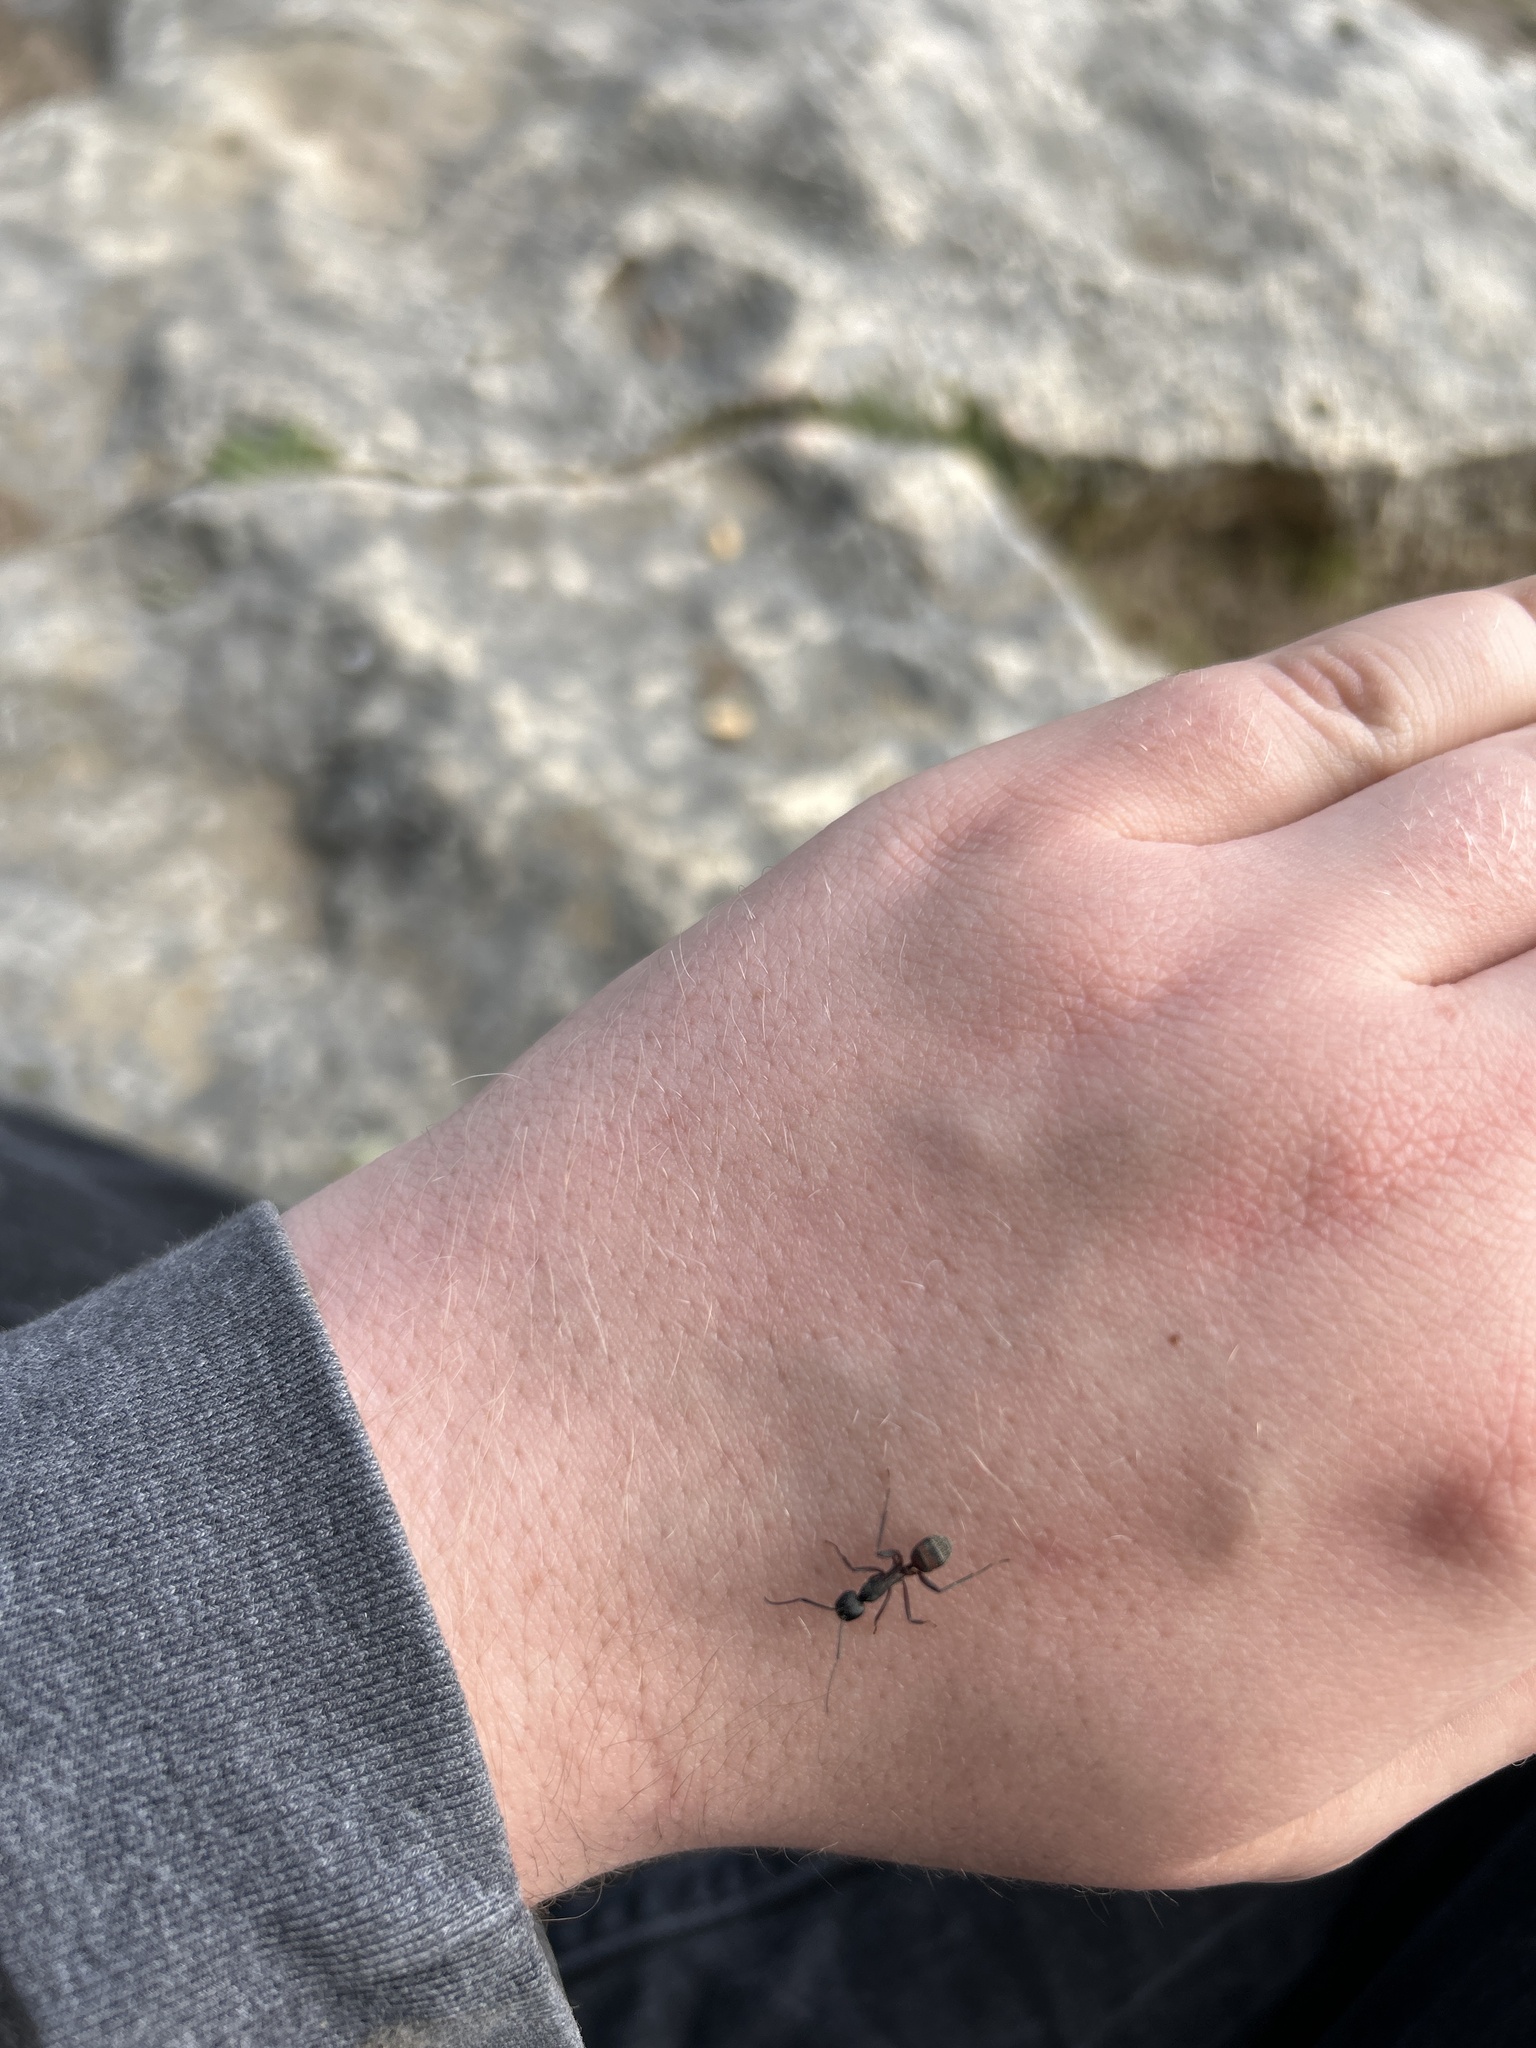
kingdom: Animalia
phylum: Arthropoda
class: Insecta
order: Hymenoptera
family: Formicidae
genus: Camponotus
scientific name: Camponotus cruentatus
